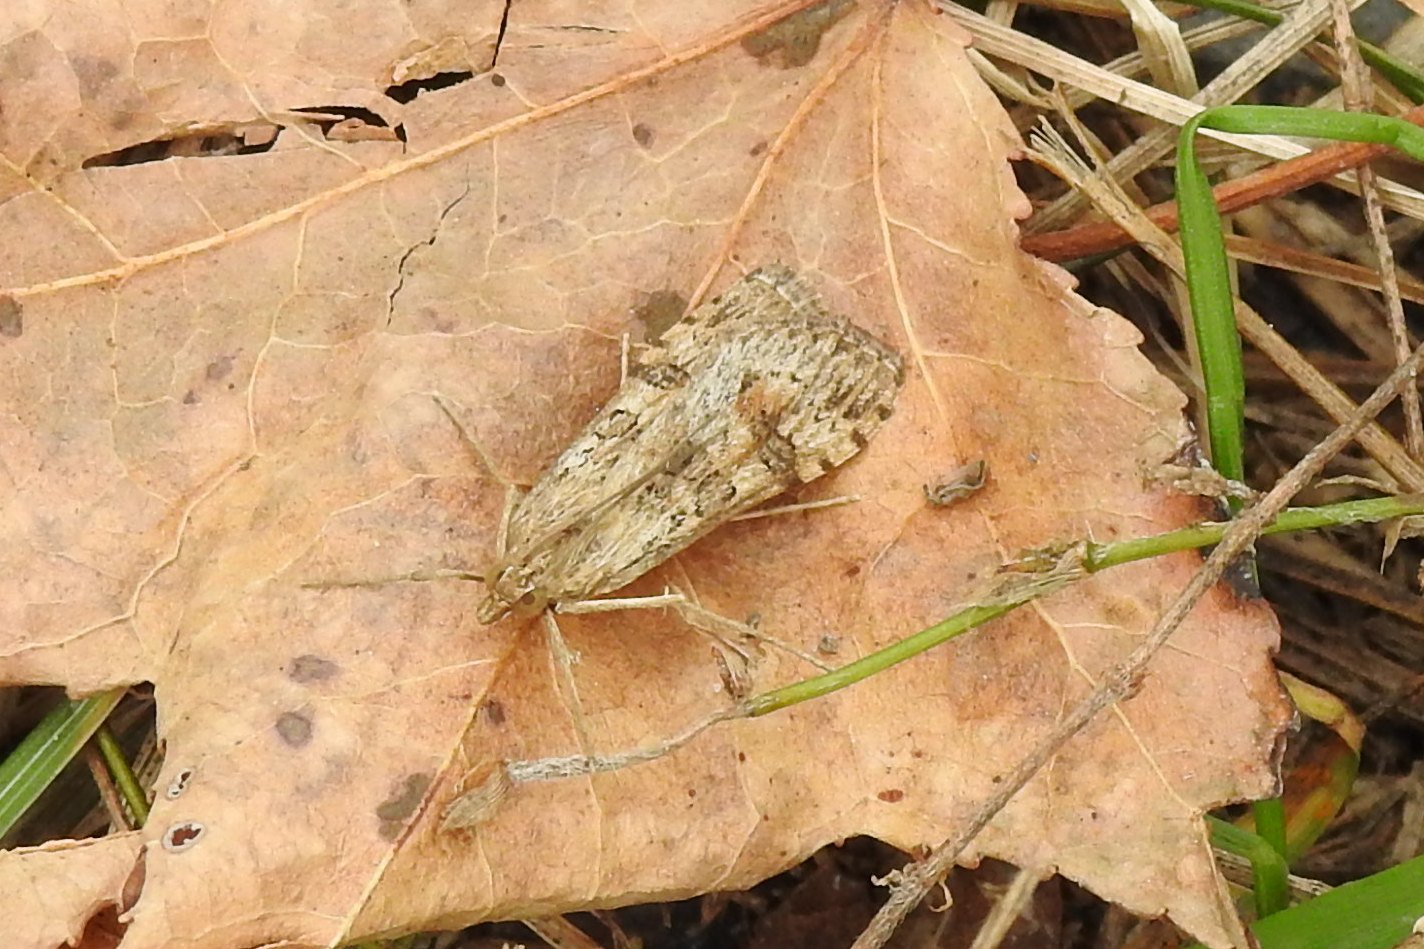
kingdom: Animalia
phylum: Arthropoda
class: Insecta
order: Lepidoptera
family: Crambidae
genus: Nomophila
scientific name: Nomophila nearctica
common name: American rush veneer
